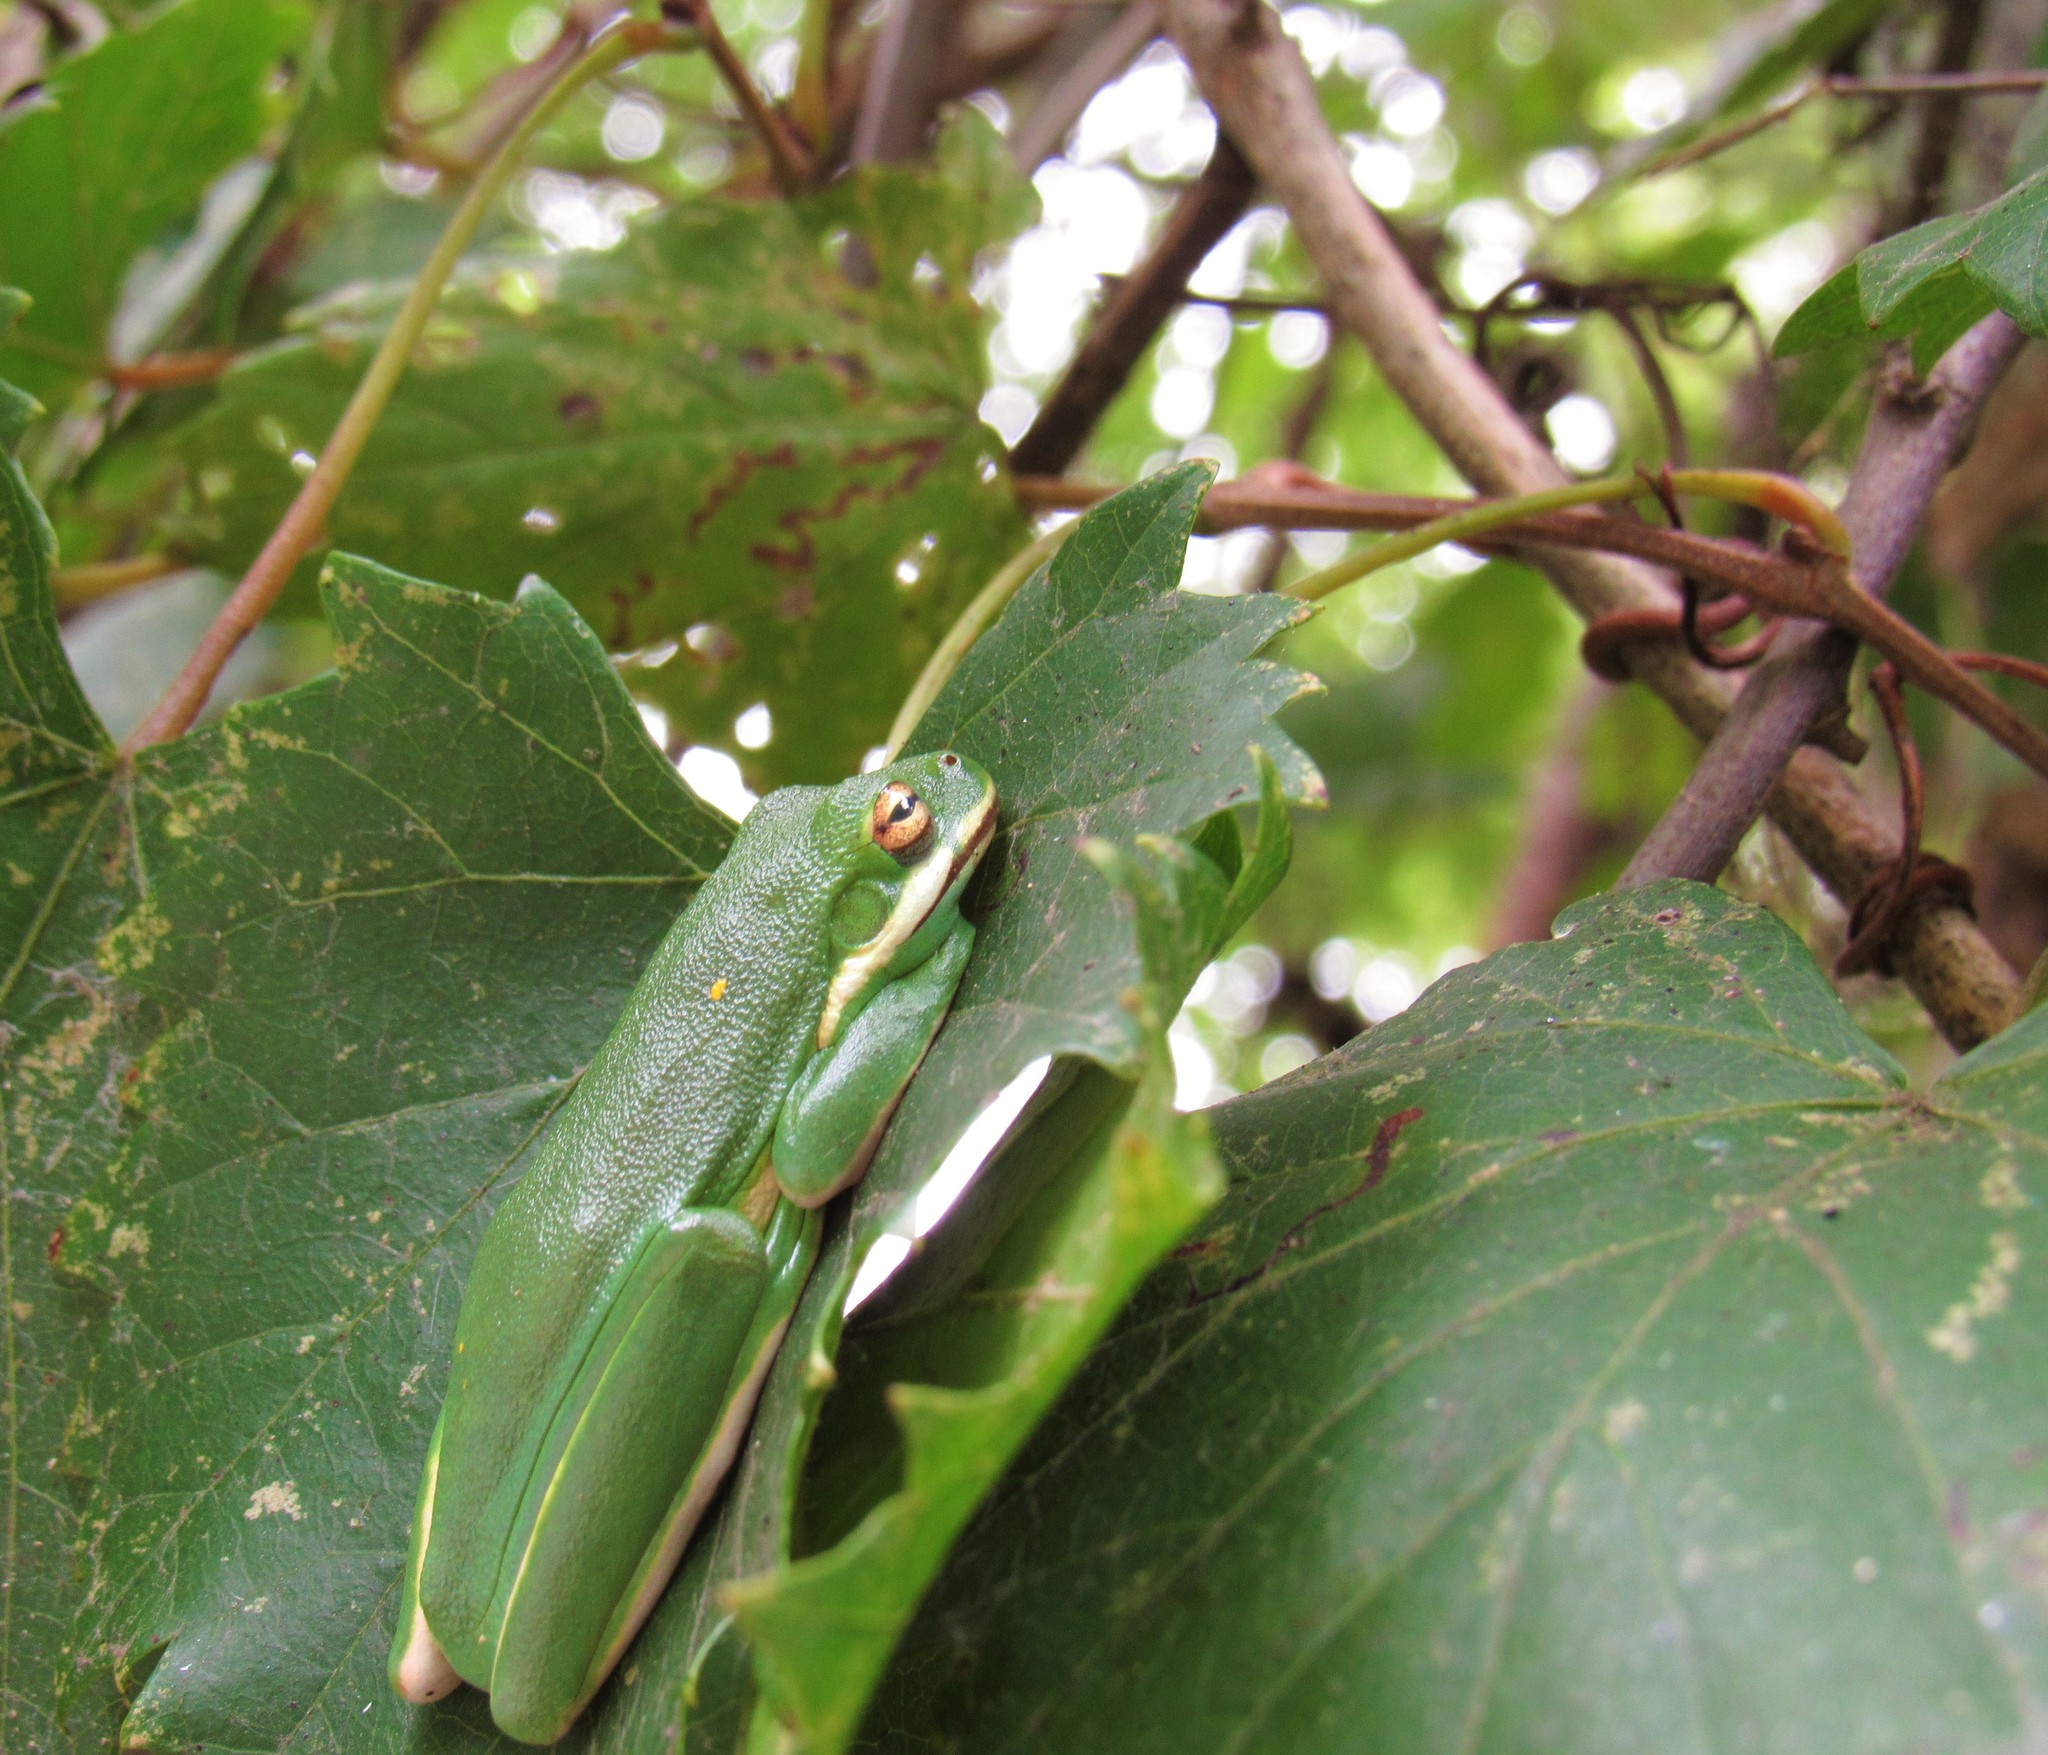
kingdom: Animalia
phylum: Chordata
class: Amphibia
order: Anura
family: Hylidae
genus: Dryophytes
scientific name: Dryophytes cinereus
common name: Green treefrog
